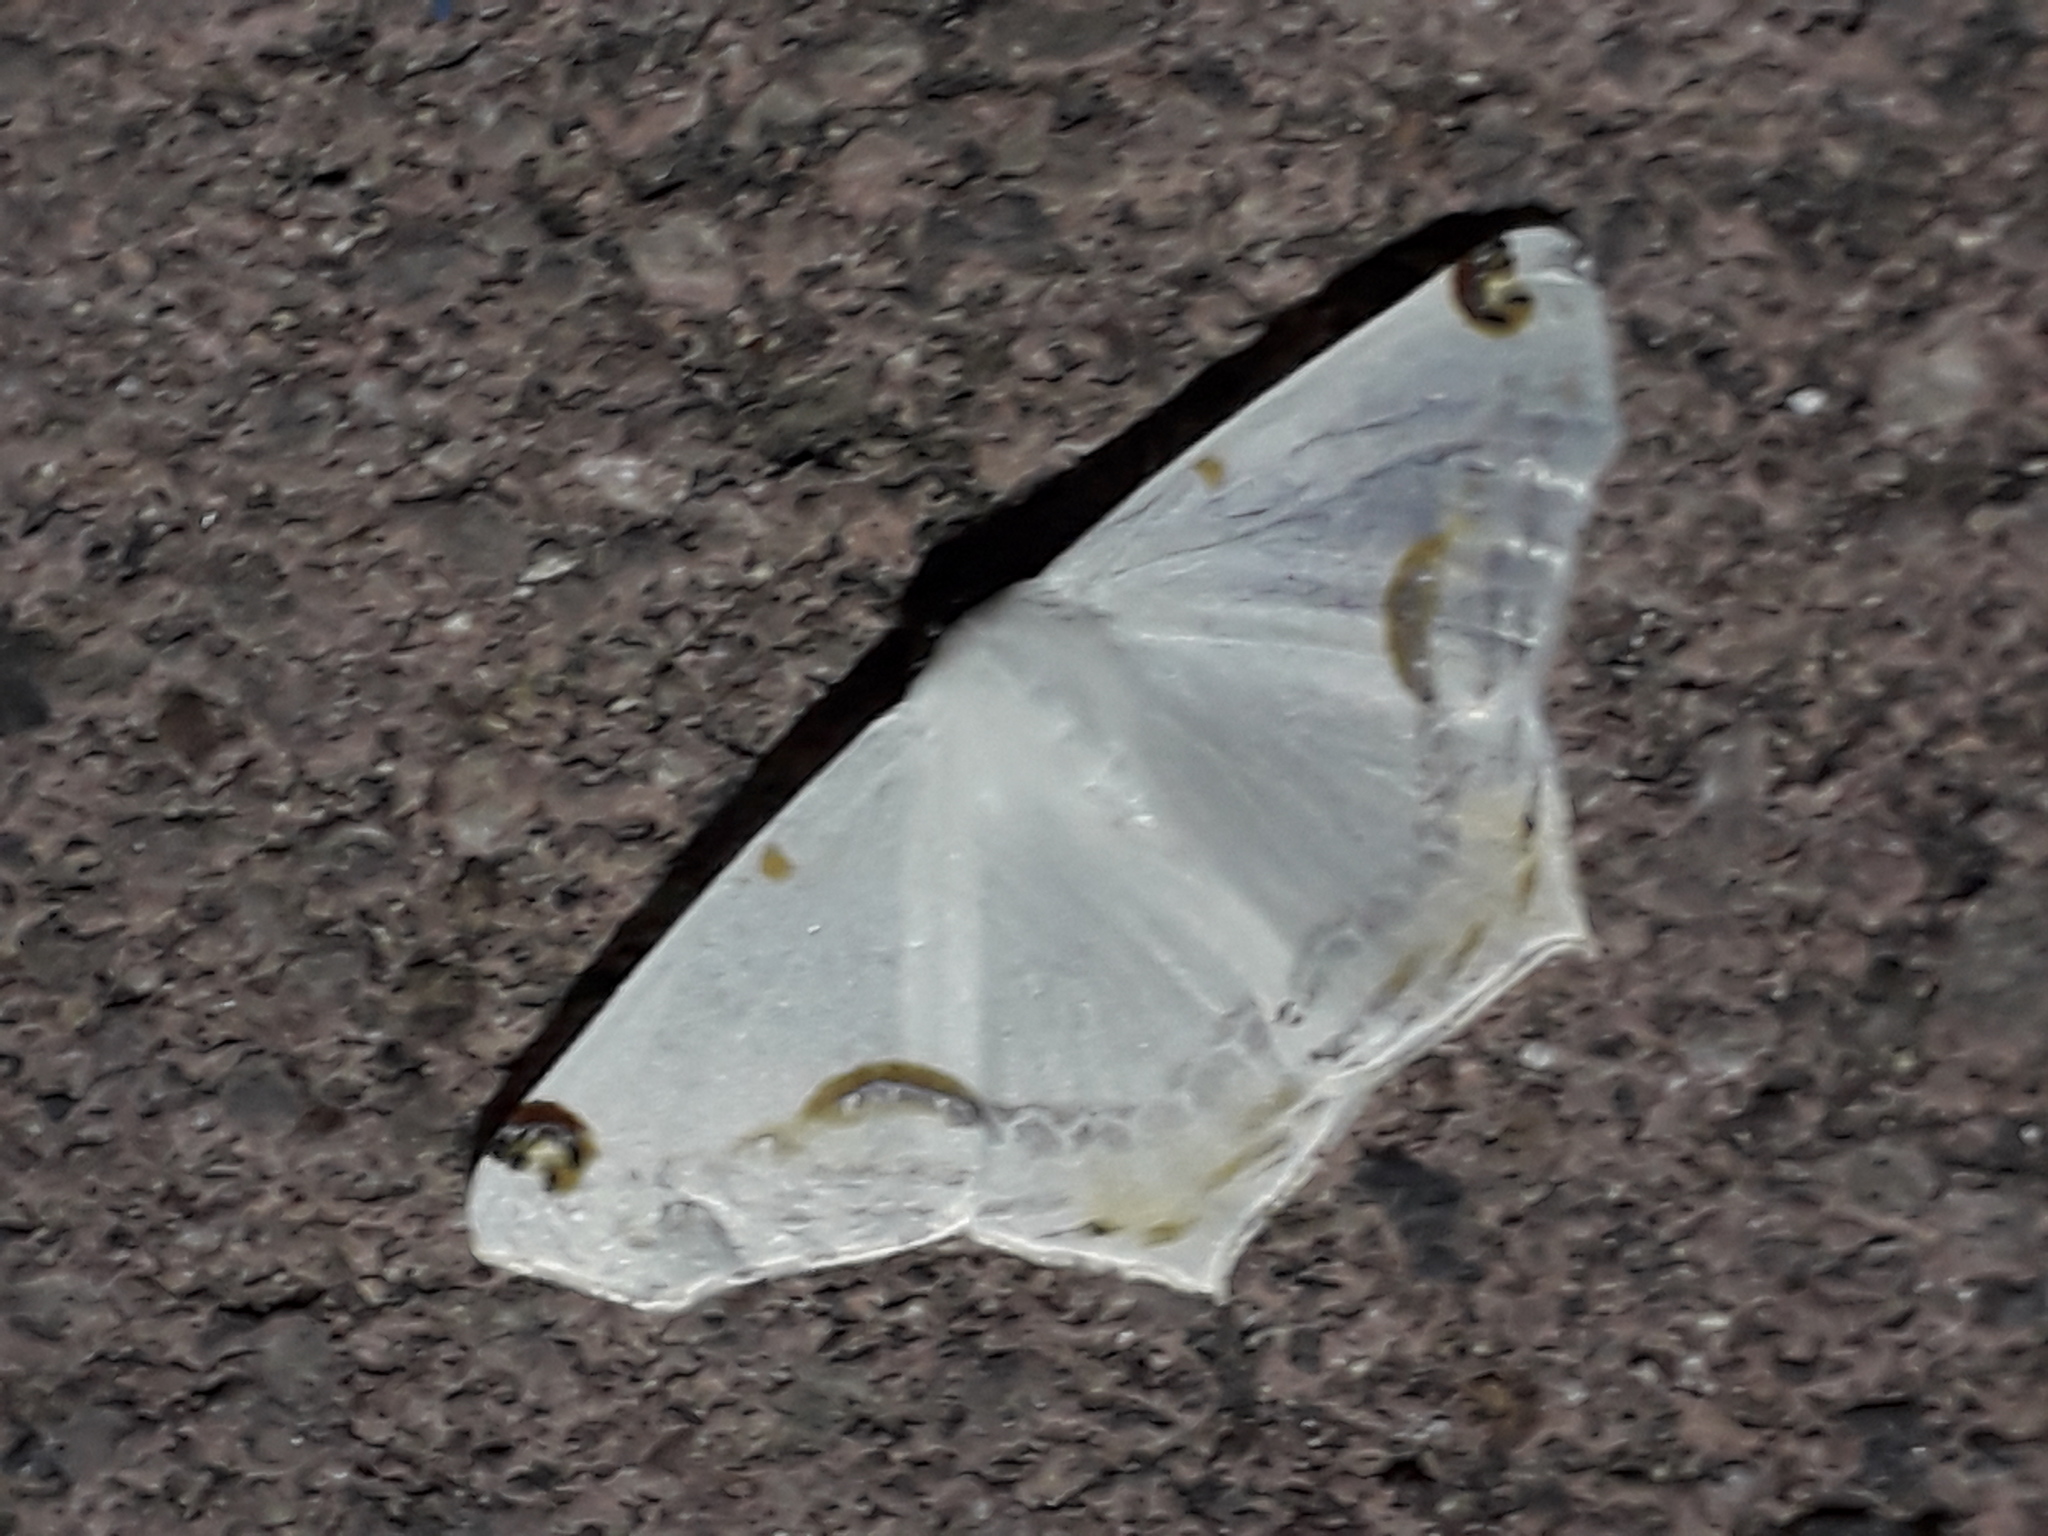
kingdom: Animalia
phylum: Arthropoda
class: Insecta
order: Lepidoptera
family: Geometridae
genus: Sericoptera
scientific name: Sericoptera mahometaria
